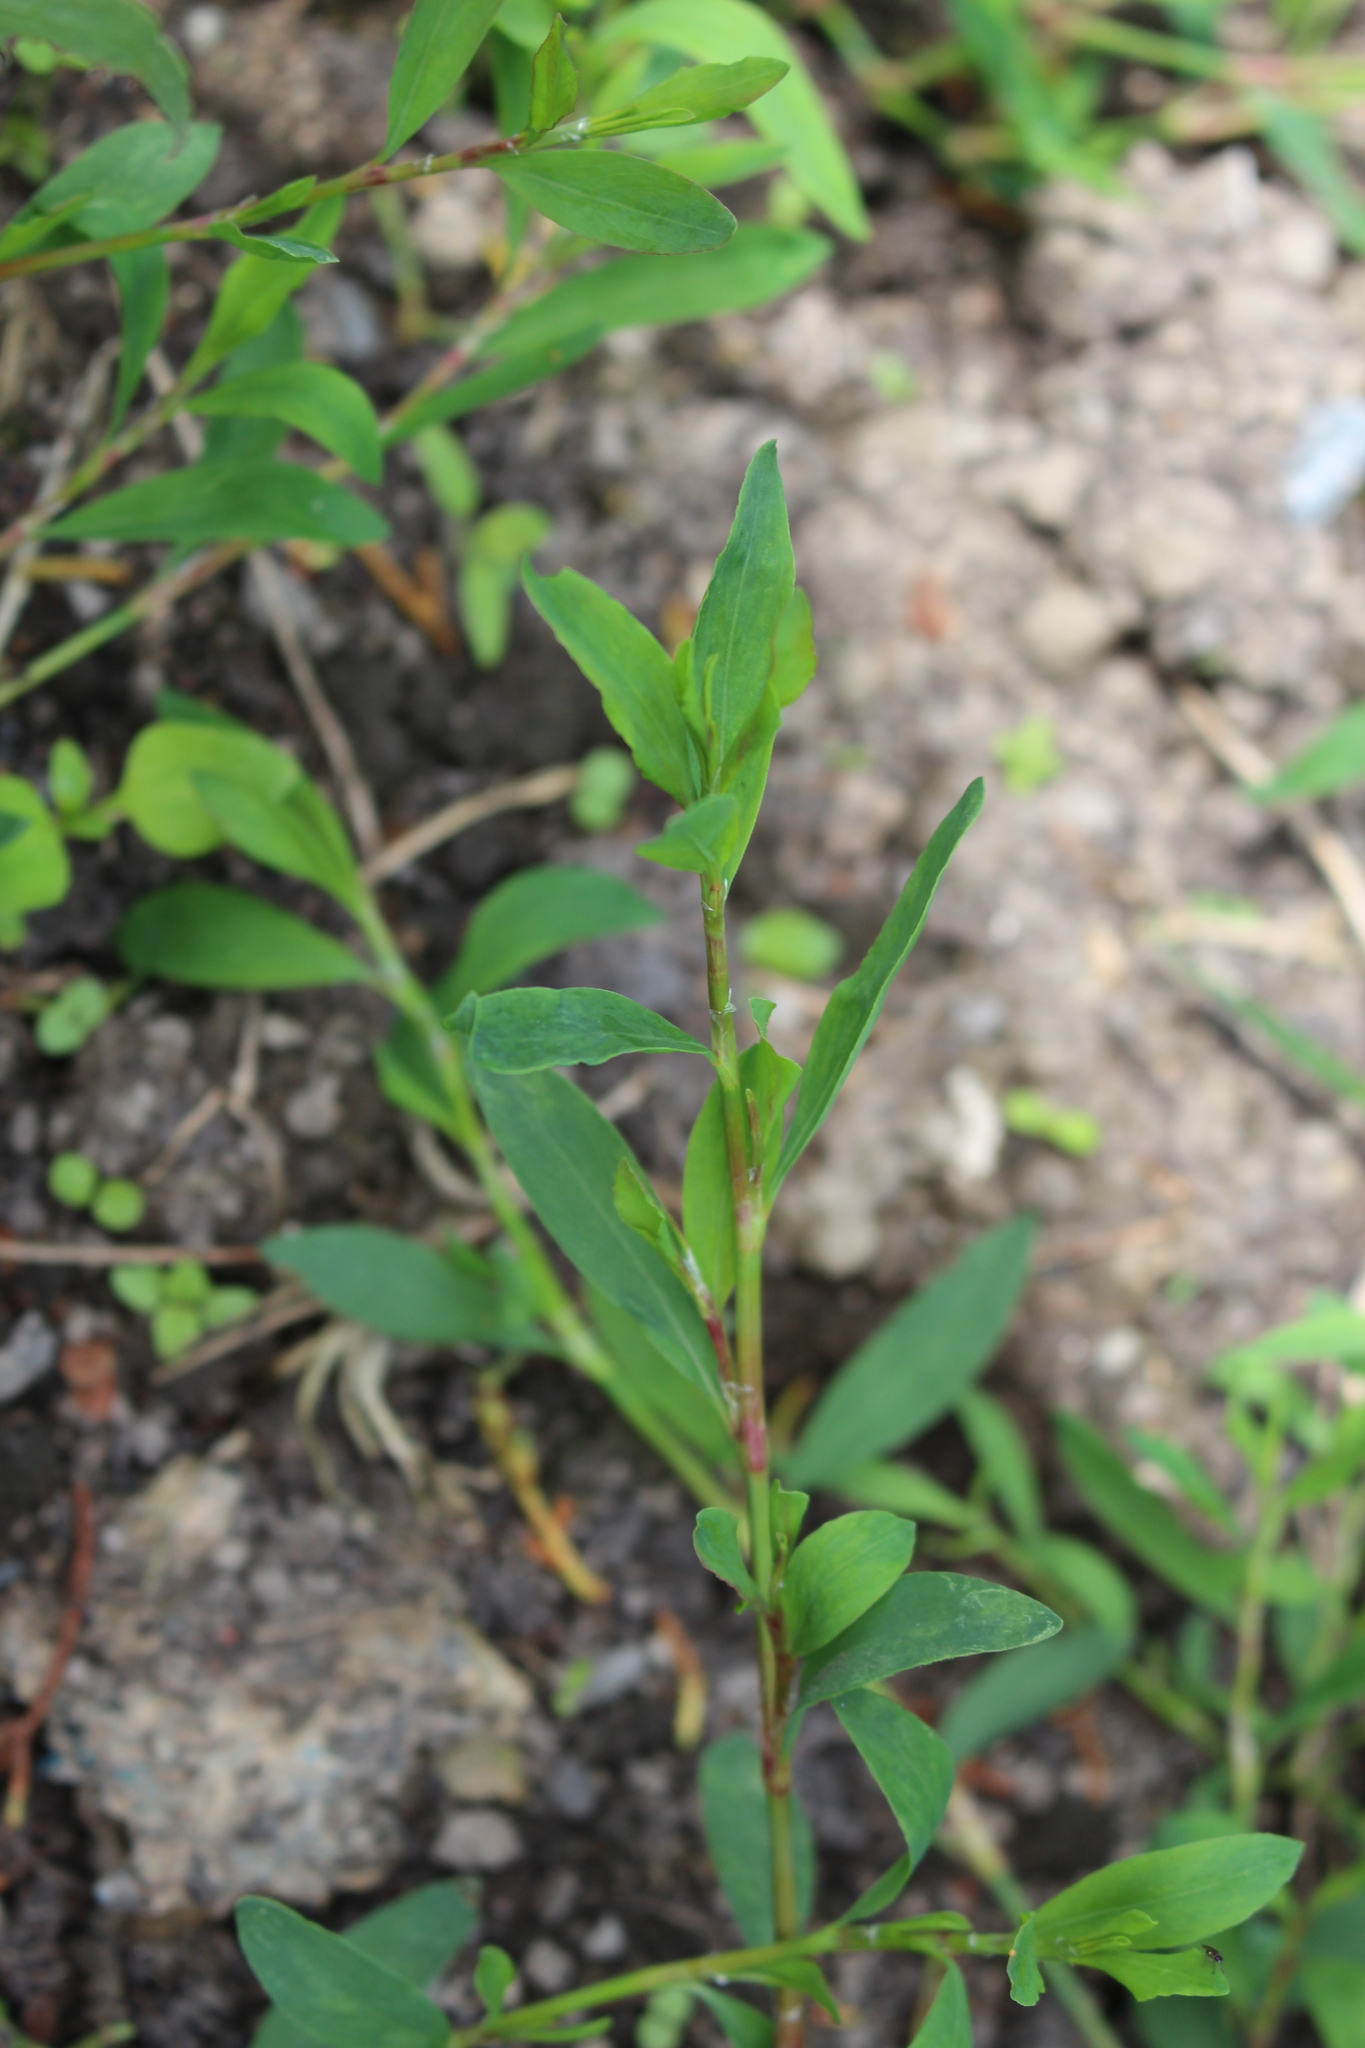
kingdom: Plantae
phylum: Tracheophyta
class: Magnoliopsida
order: Caryophyllales
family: Polygonaceae
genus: Polygonum
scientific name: Polygonum aviculare
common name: Prostrate knotweed
